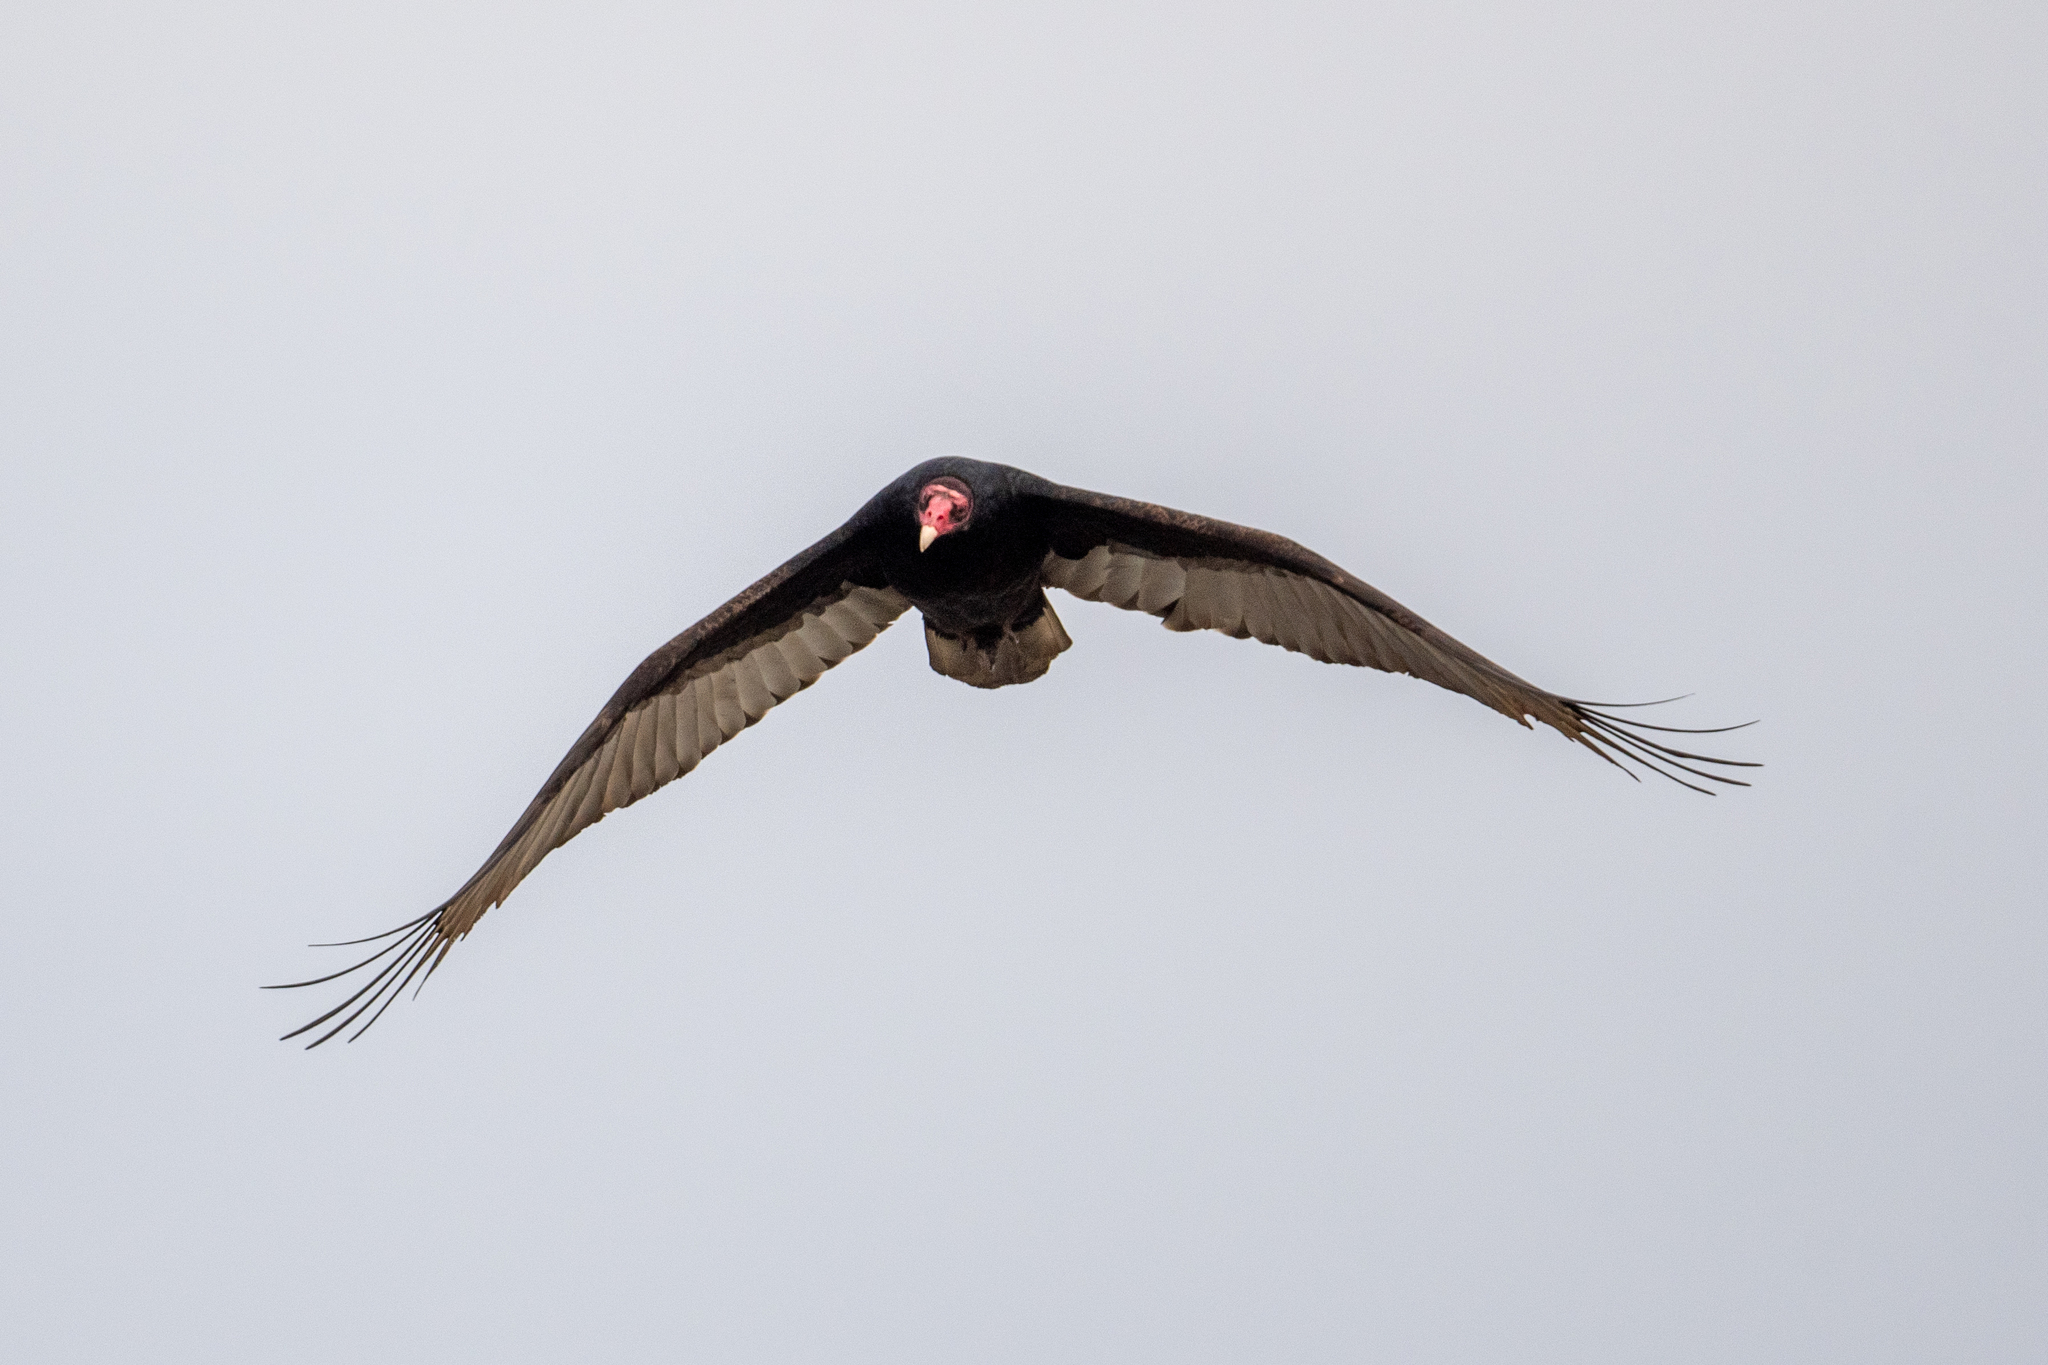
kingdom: Animalia
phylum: Chordata
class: Aves
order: Accipitriformes
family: Cathartidae
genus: Cathartes
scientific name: Cathartes aura
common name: Turkey vulture
